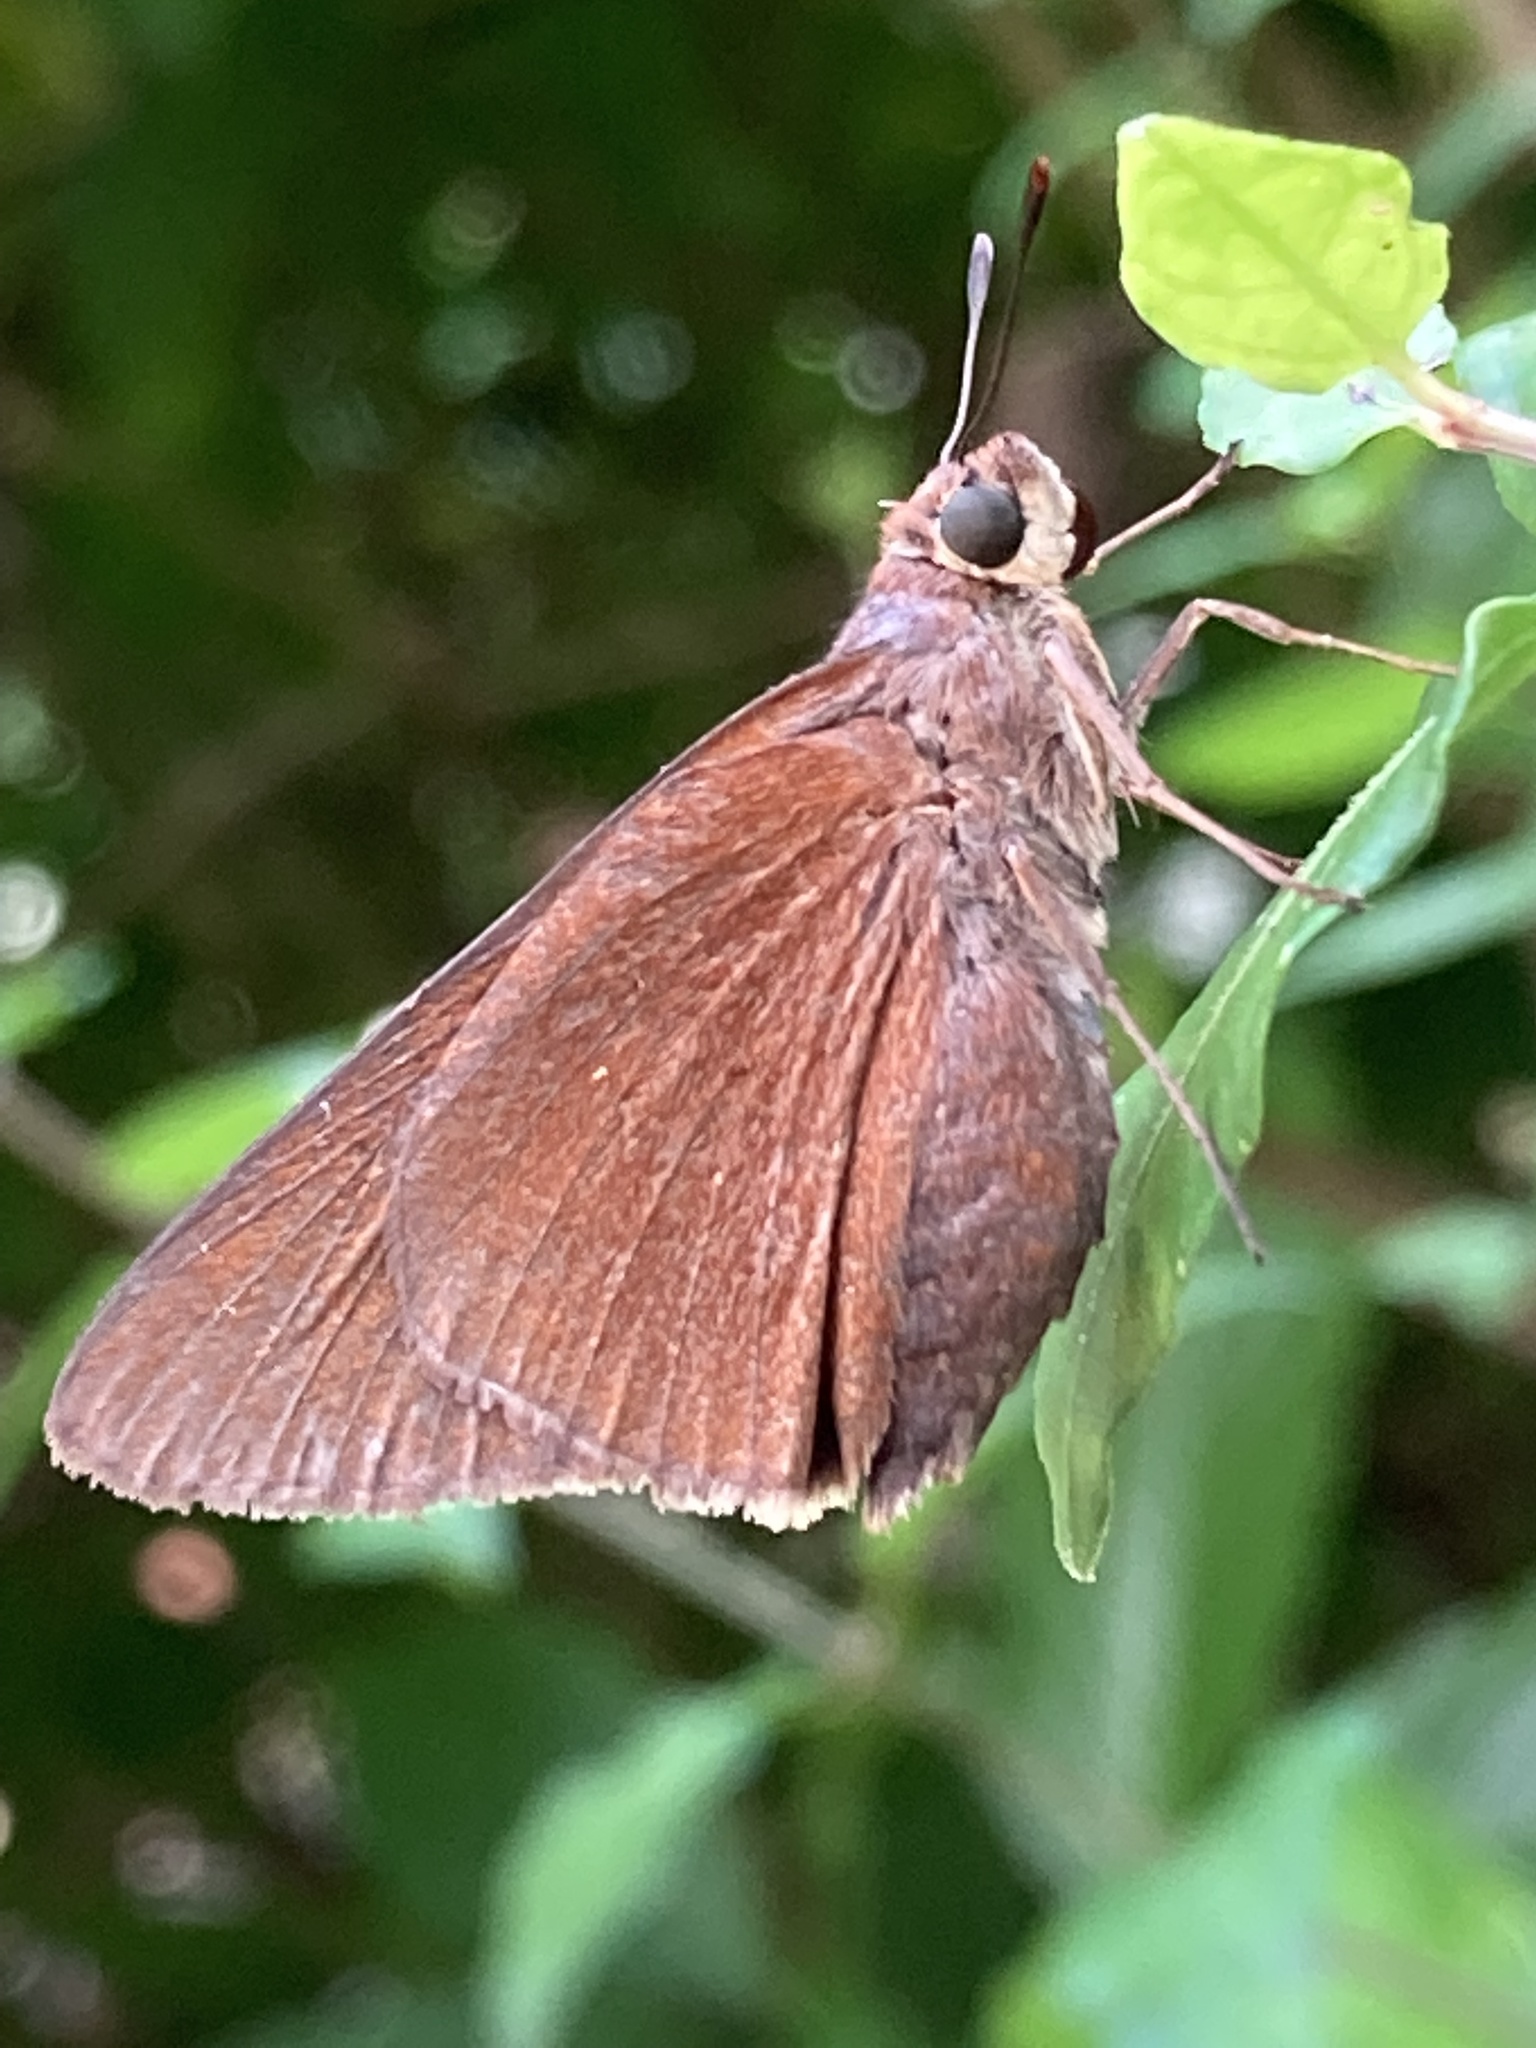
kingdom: Animalia
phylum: Arthropoda
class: Insecta
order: Lepidoptera
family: Hesperiidae
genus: Asbolis
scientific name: Asbolis capucinus
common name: Monk skipper
